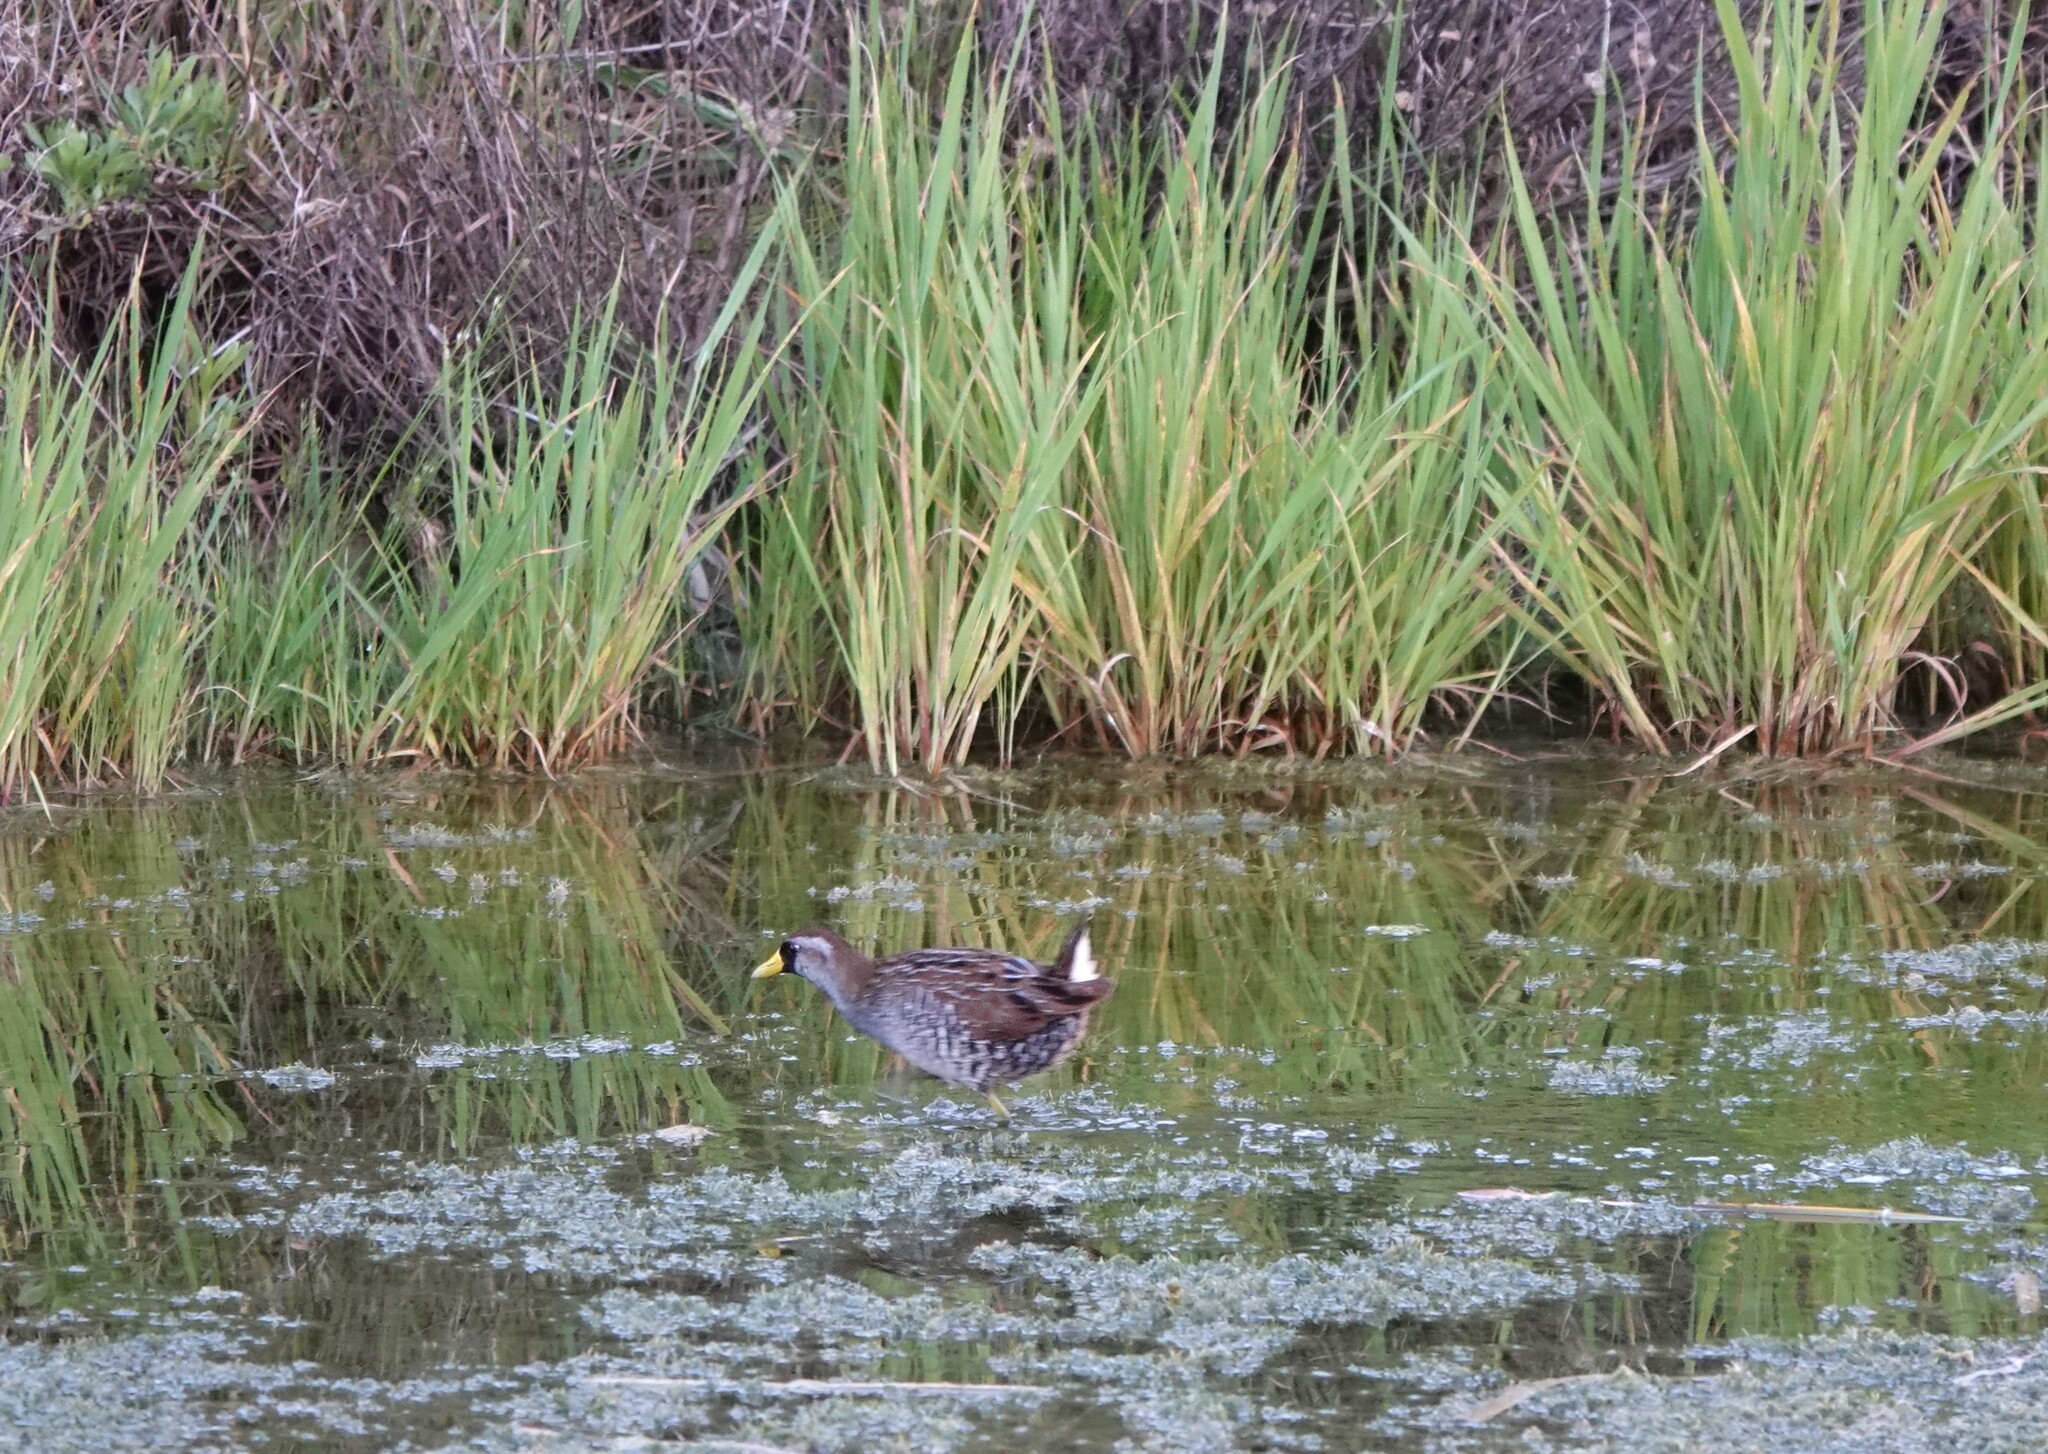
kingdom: Animalia
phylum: Chordata
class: Aves
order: Gruiformes
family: Rallidae
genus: Porzana
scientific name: Porzana carolina
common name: Sora
